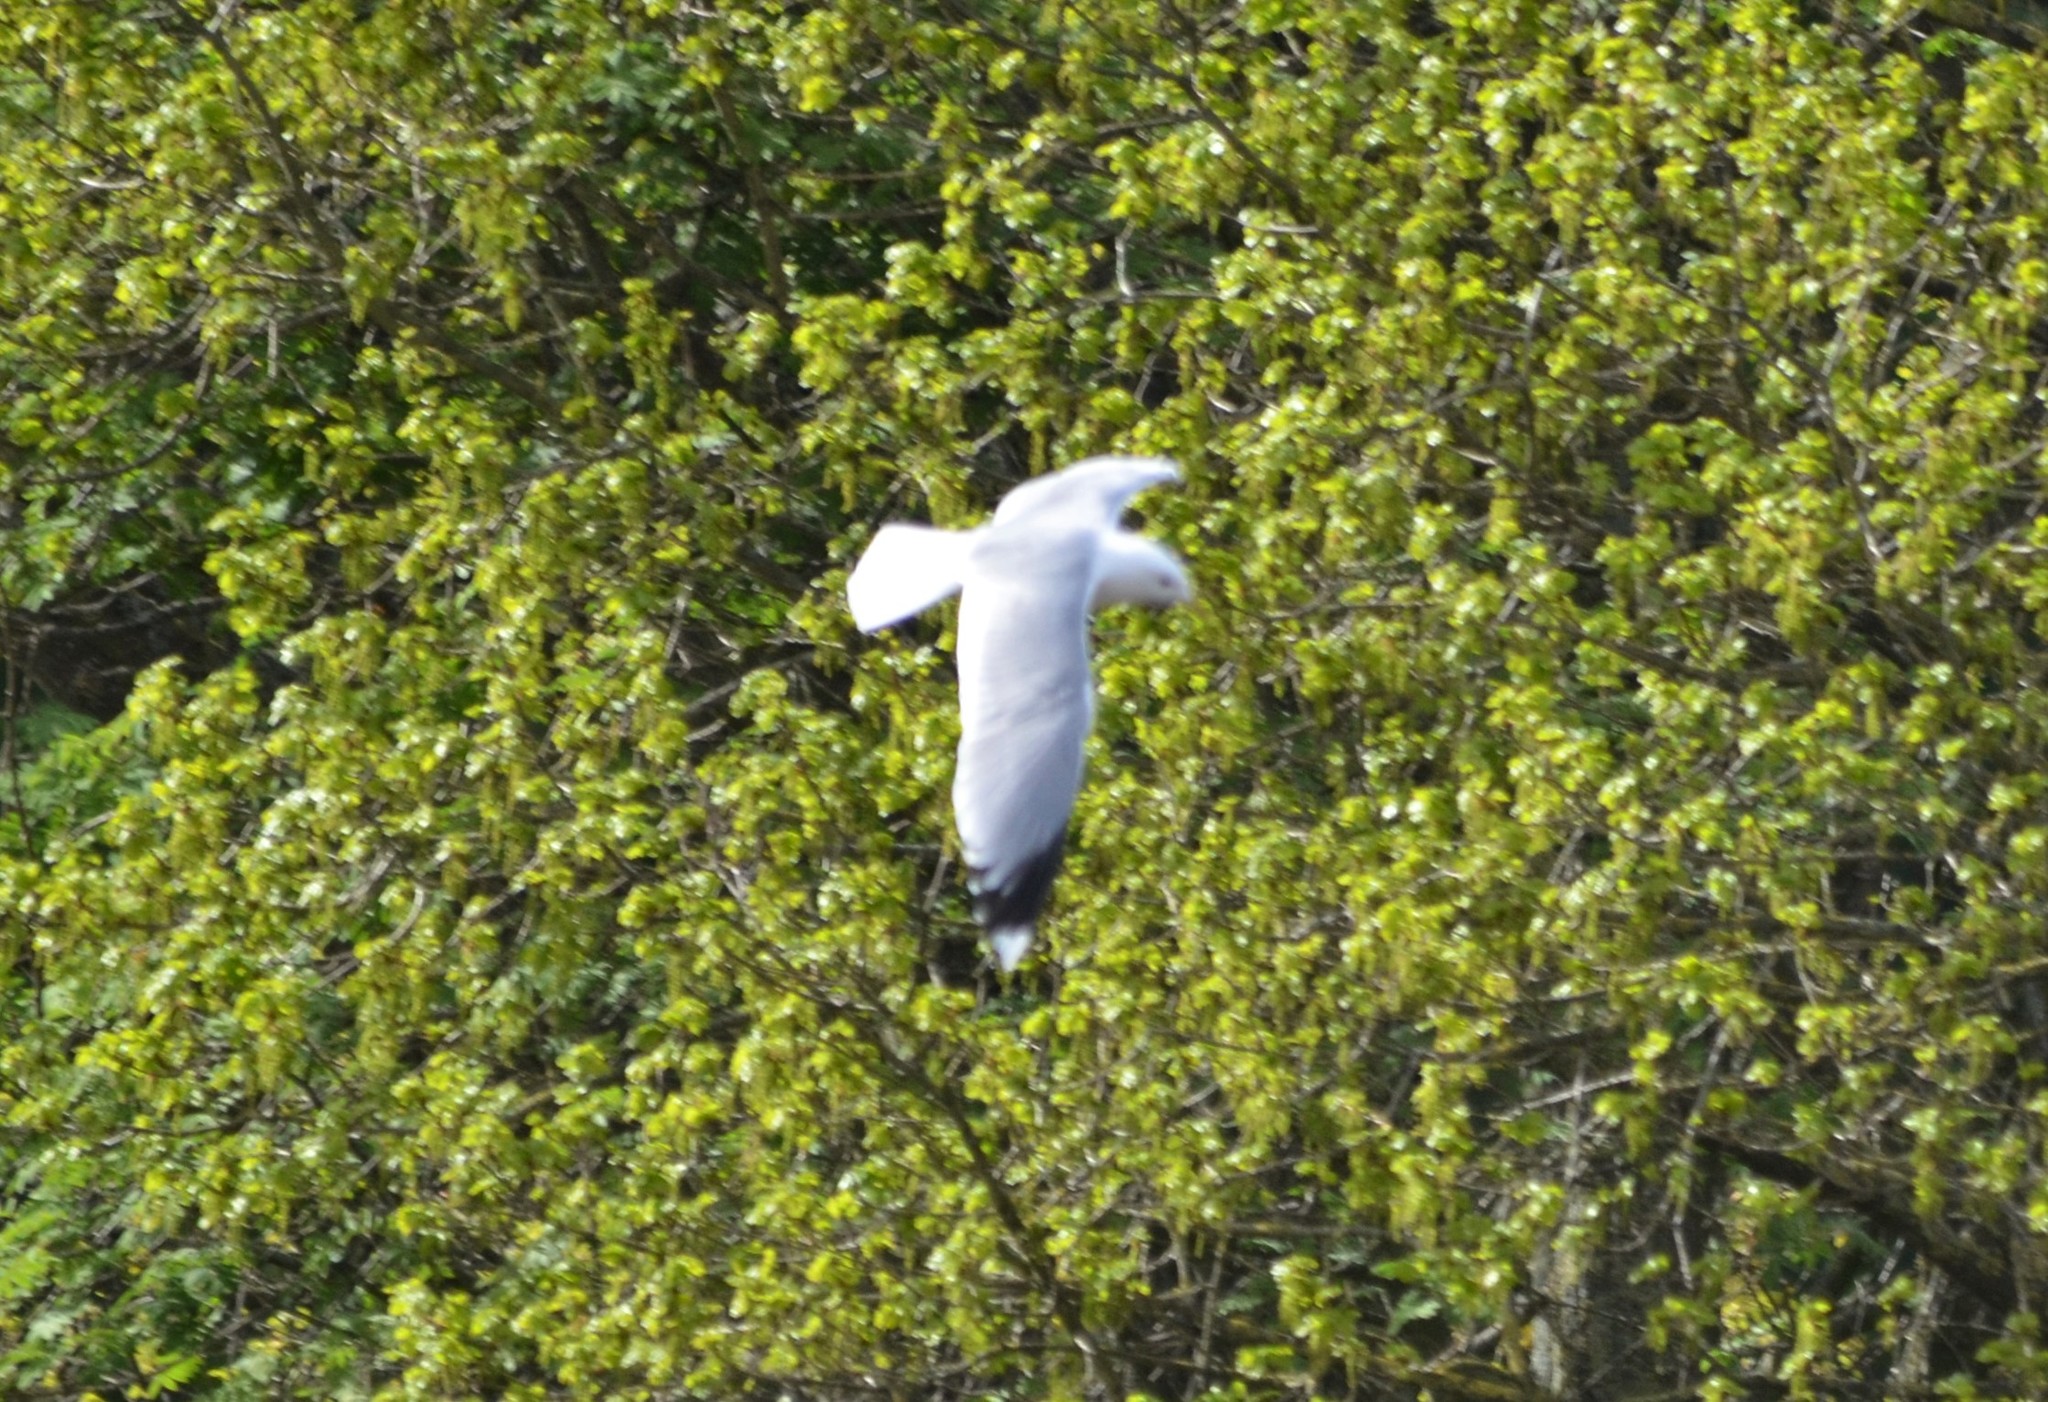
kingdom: Animalia
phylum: Chordata
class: Aves
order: Charadriiformes
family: Laridae
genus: Larus
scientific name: Larus canus
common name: Mew gull
